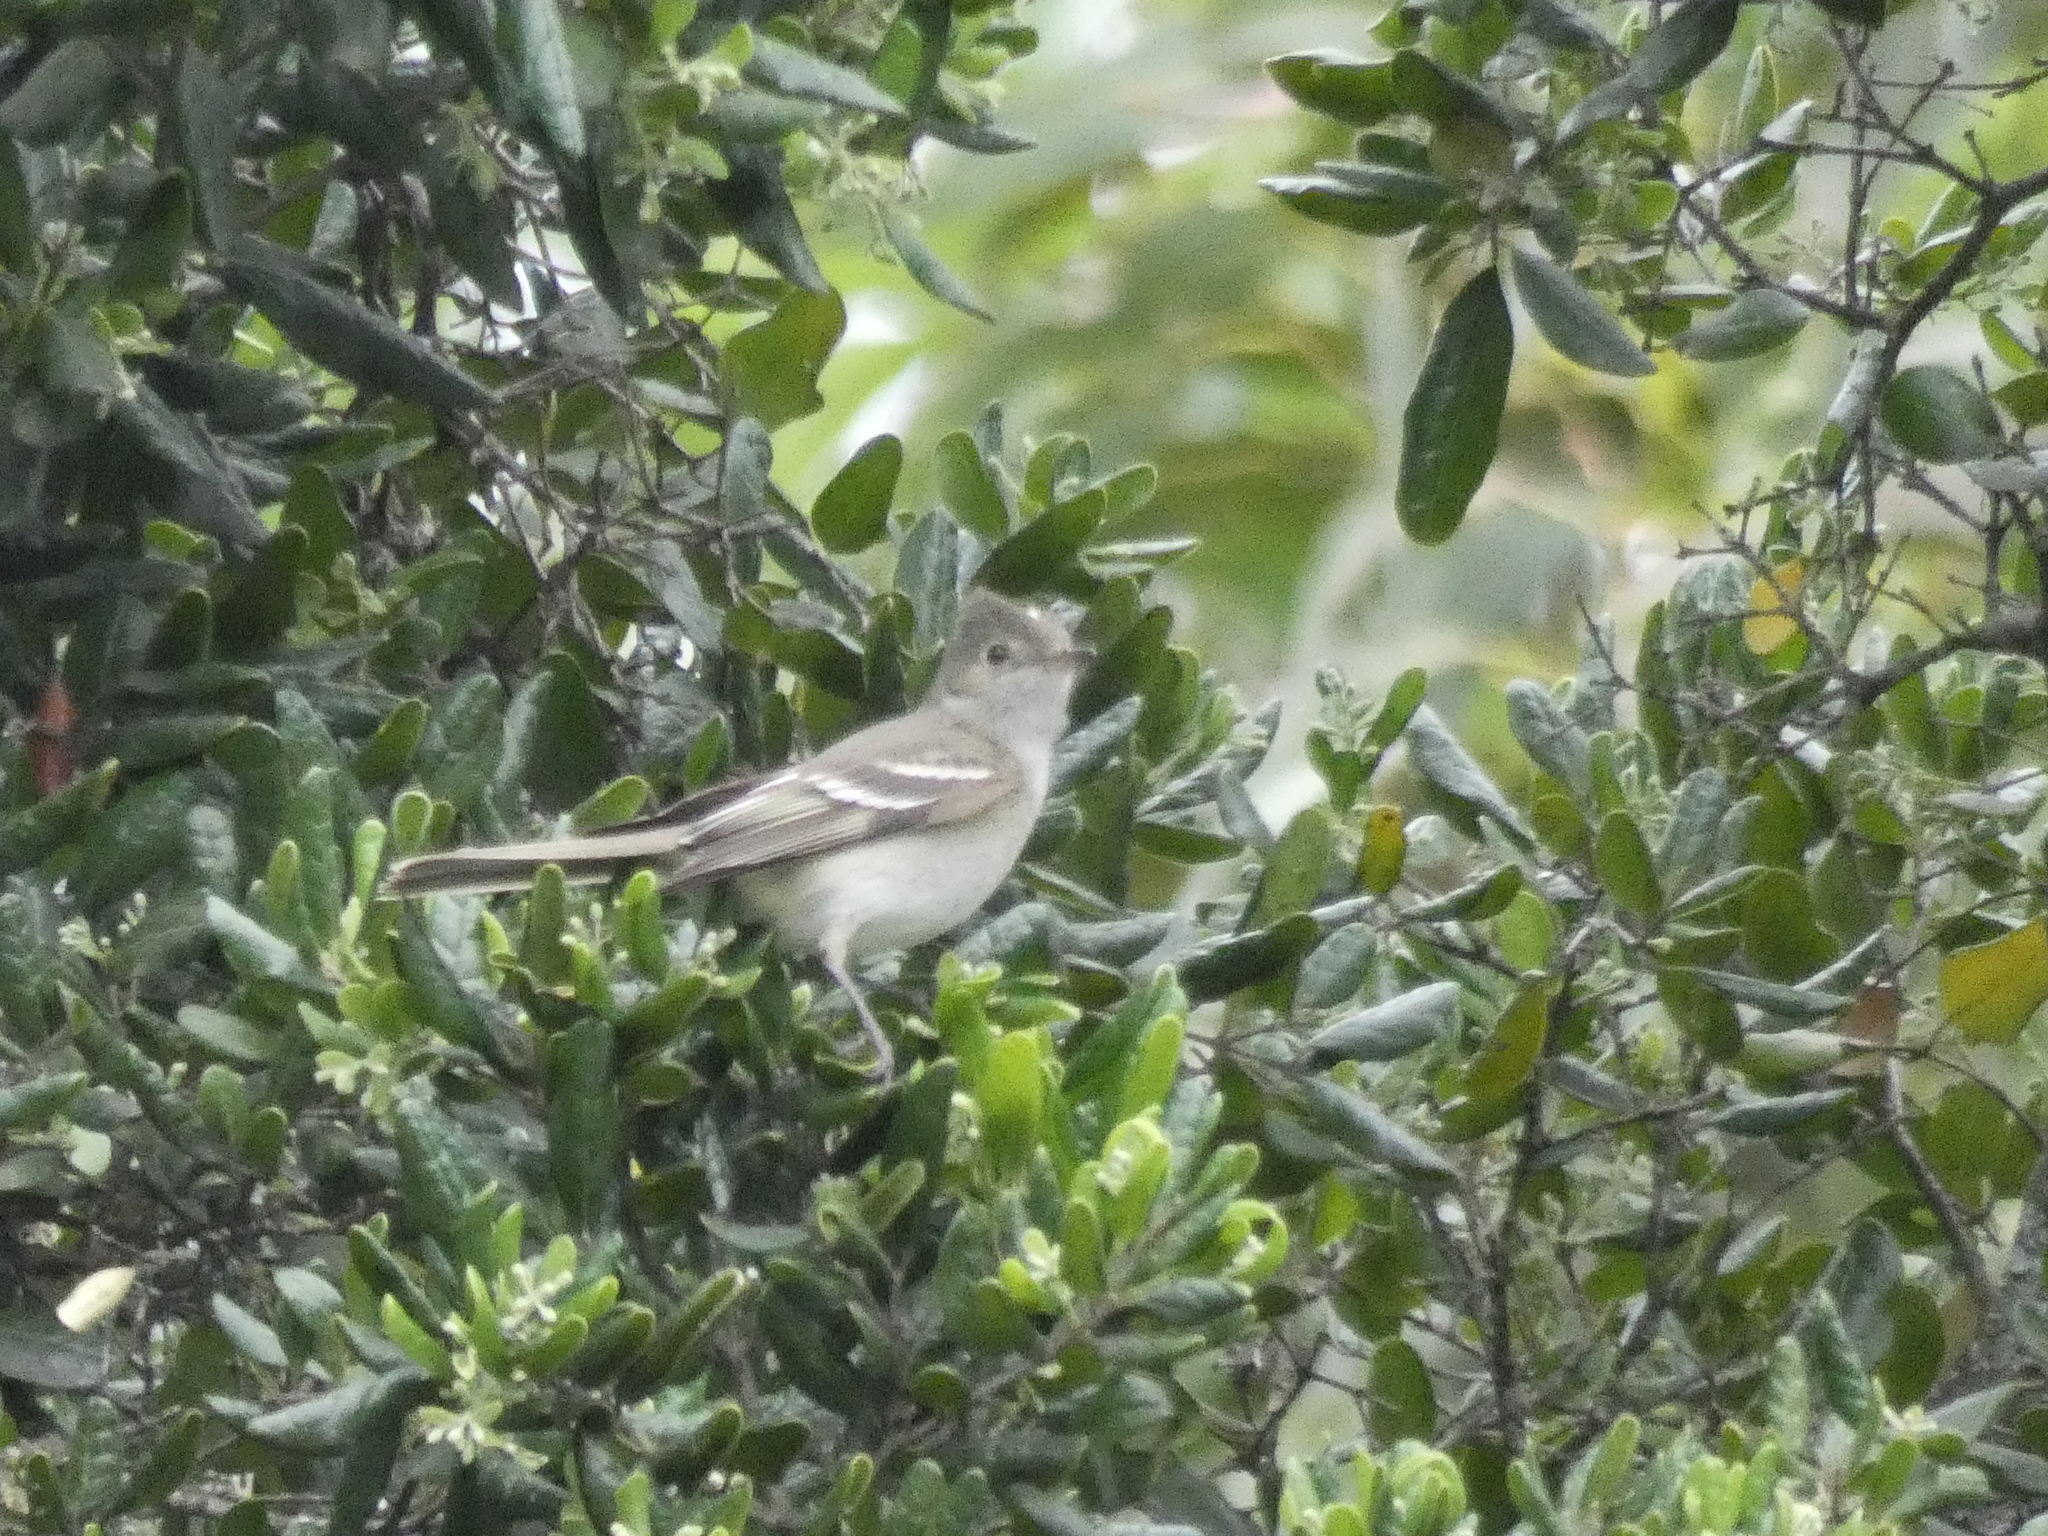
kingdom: Animalia
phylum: Chordata
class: Aves
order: Passeriformes
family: Tyrannidae
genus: Elaenia
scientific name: Elaenia albiceps
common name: White-crested elaenia
